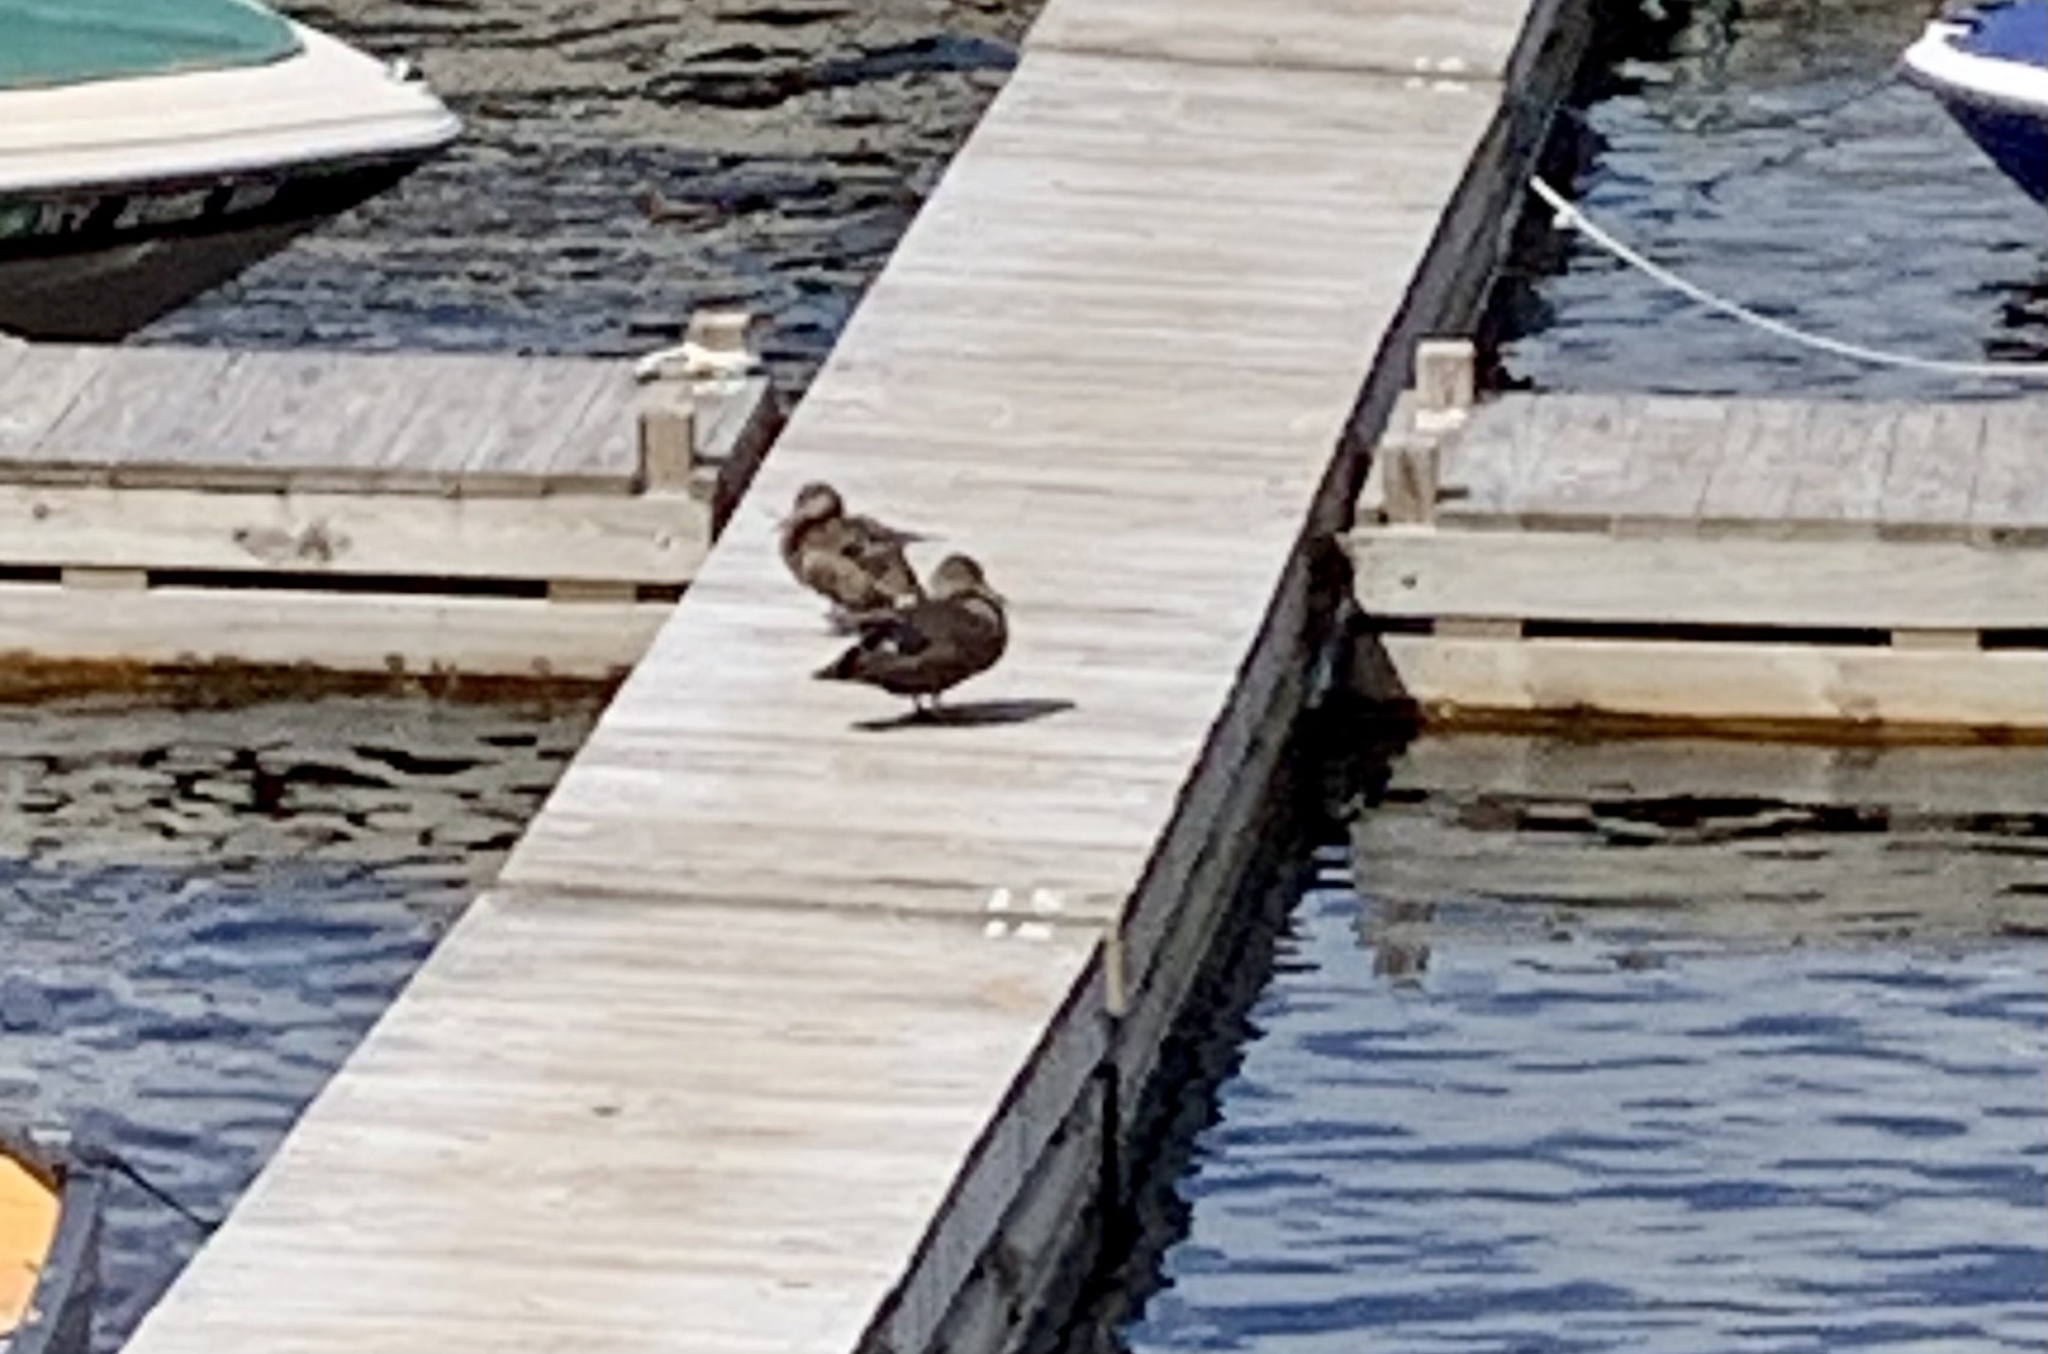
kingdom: Animalia
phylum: Chordata
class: Aves
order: Anseriformes
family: Anatidae
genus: Anas
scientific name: Anas rubripes
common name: American black duck
